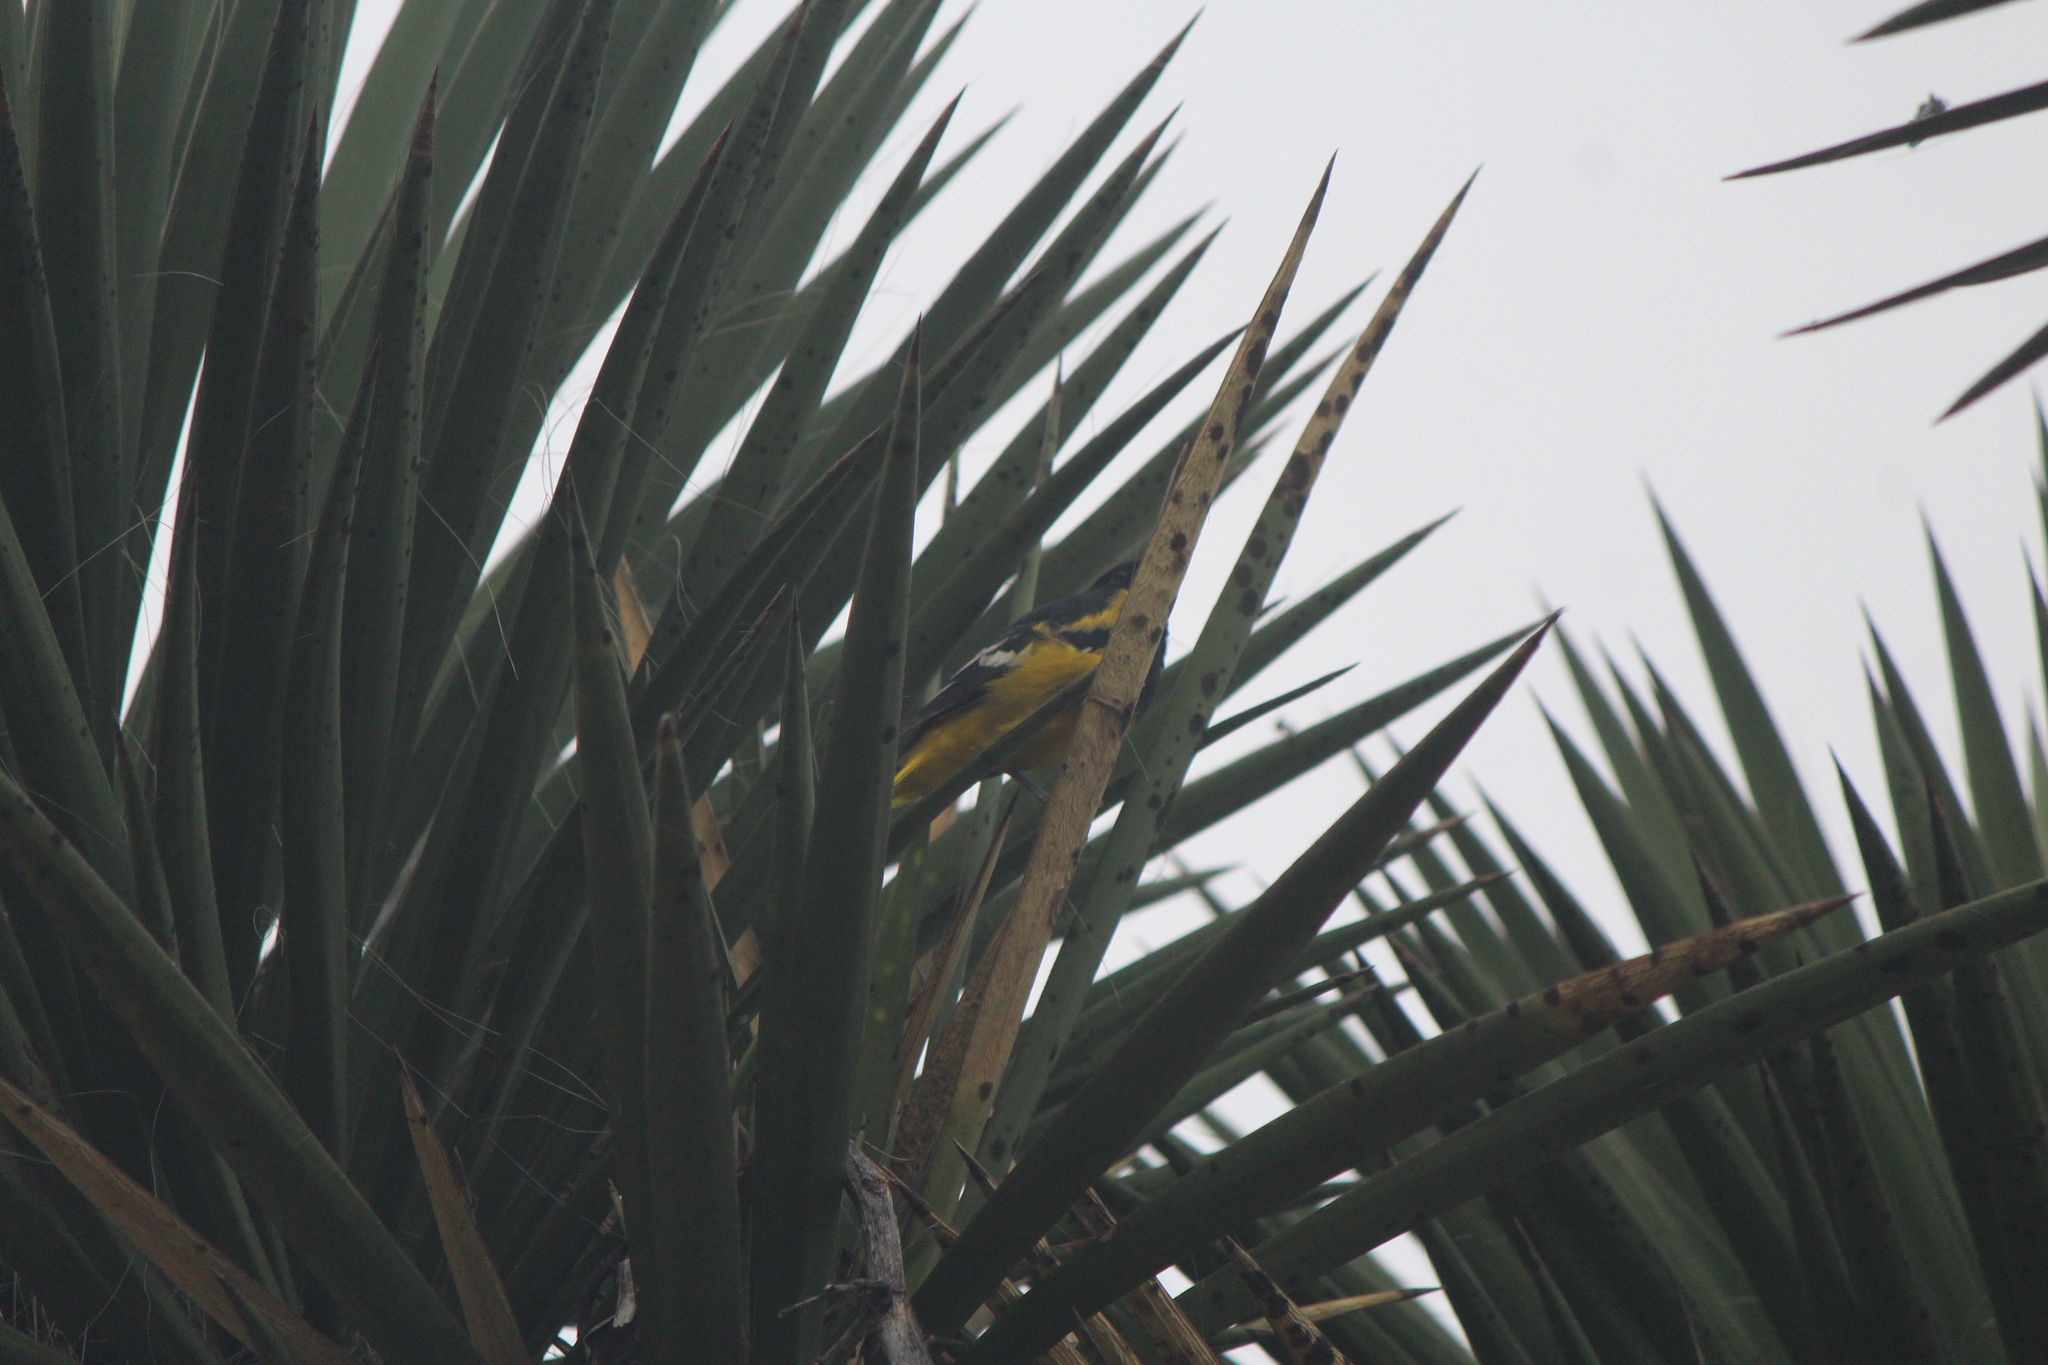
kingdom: Animalia
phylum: Chordata
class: Aves
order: Passeriformes
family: Icteridae
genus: Icterus
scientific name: Icterus parisorum
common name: Scott's oriole
